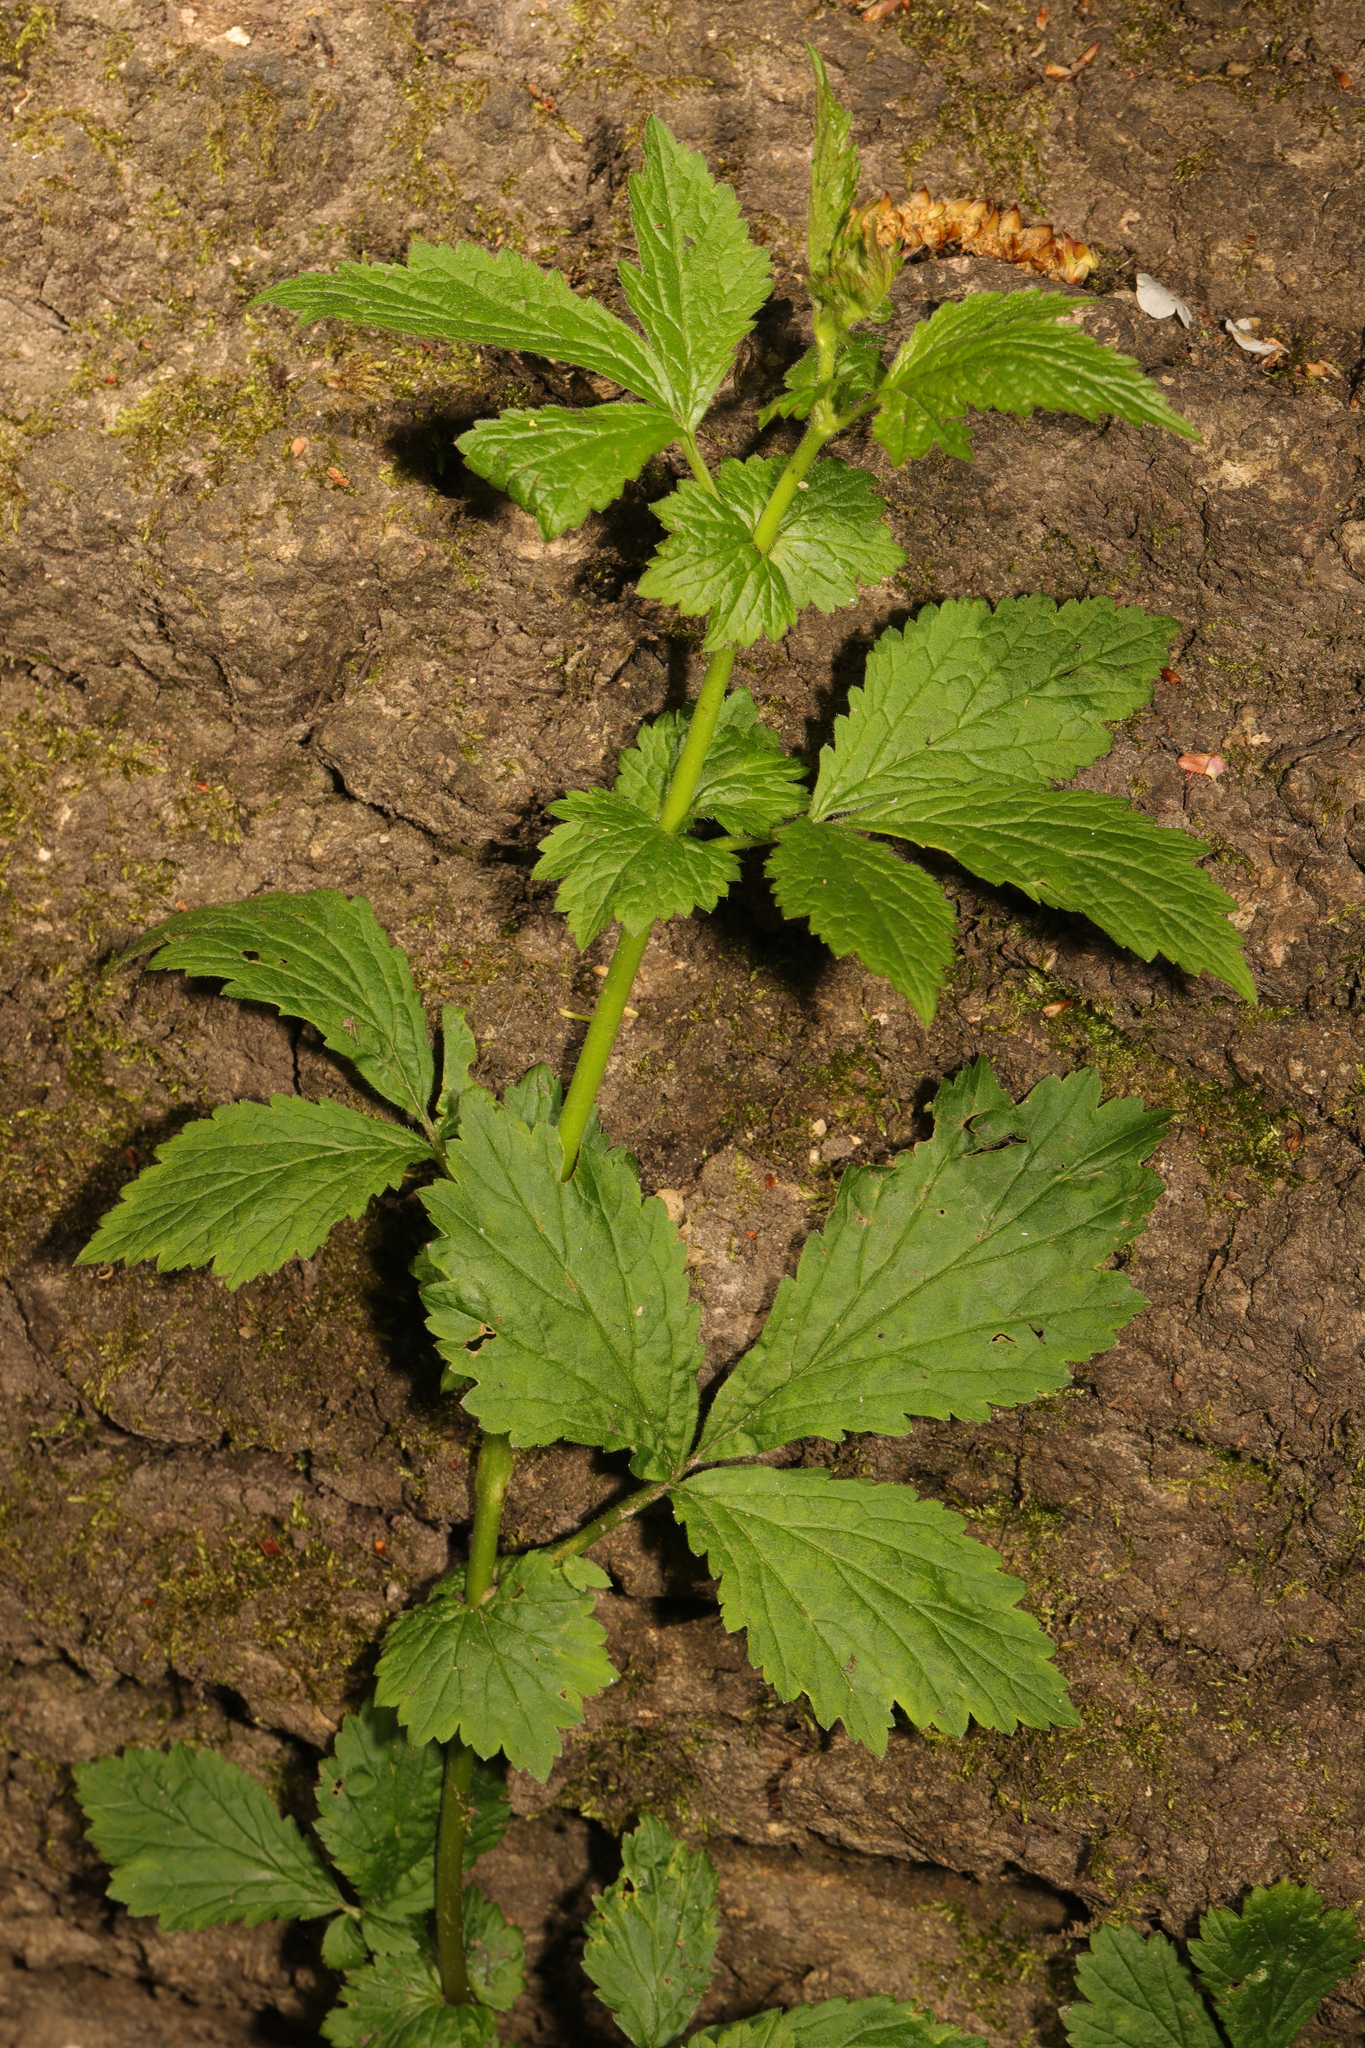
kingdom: Plantae
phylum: Tracheophyta
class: Magnoliopsida
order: Rosales
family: Rosaceae
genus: Geum
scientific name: Geum urbanum
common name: Wood avens
